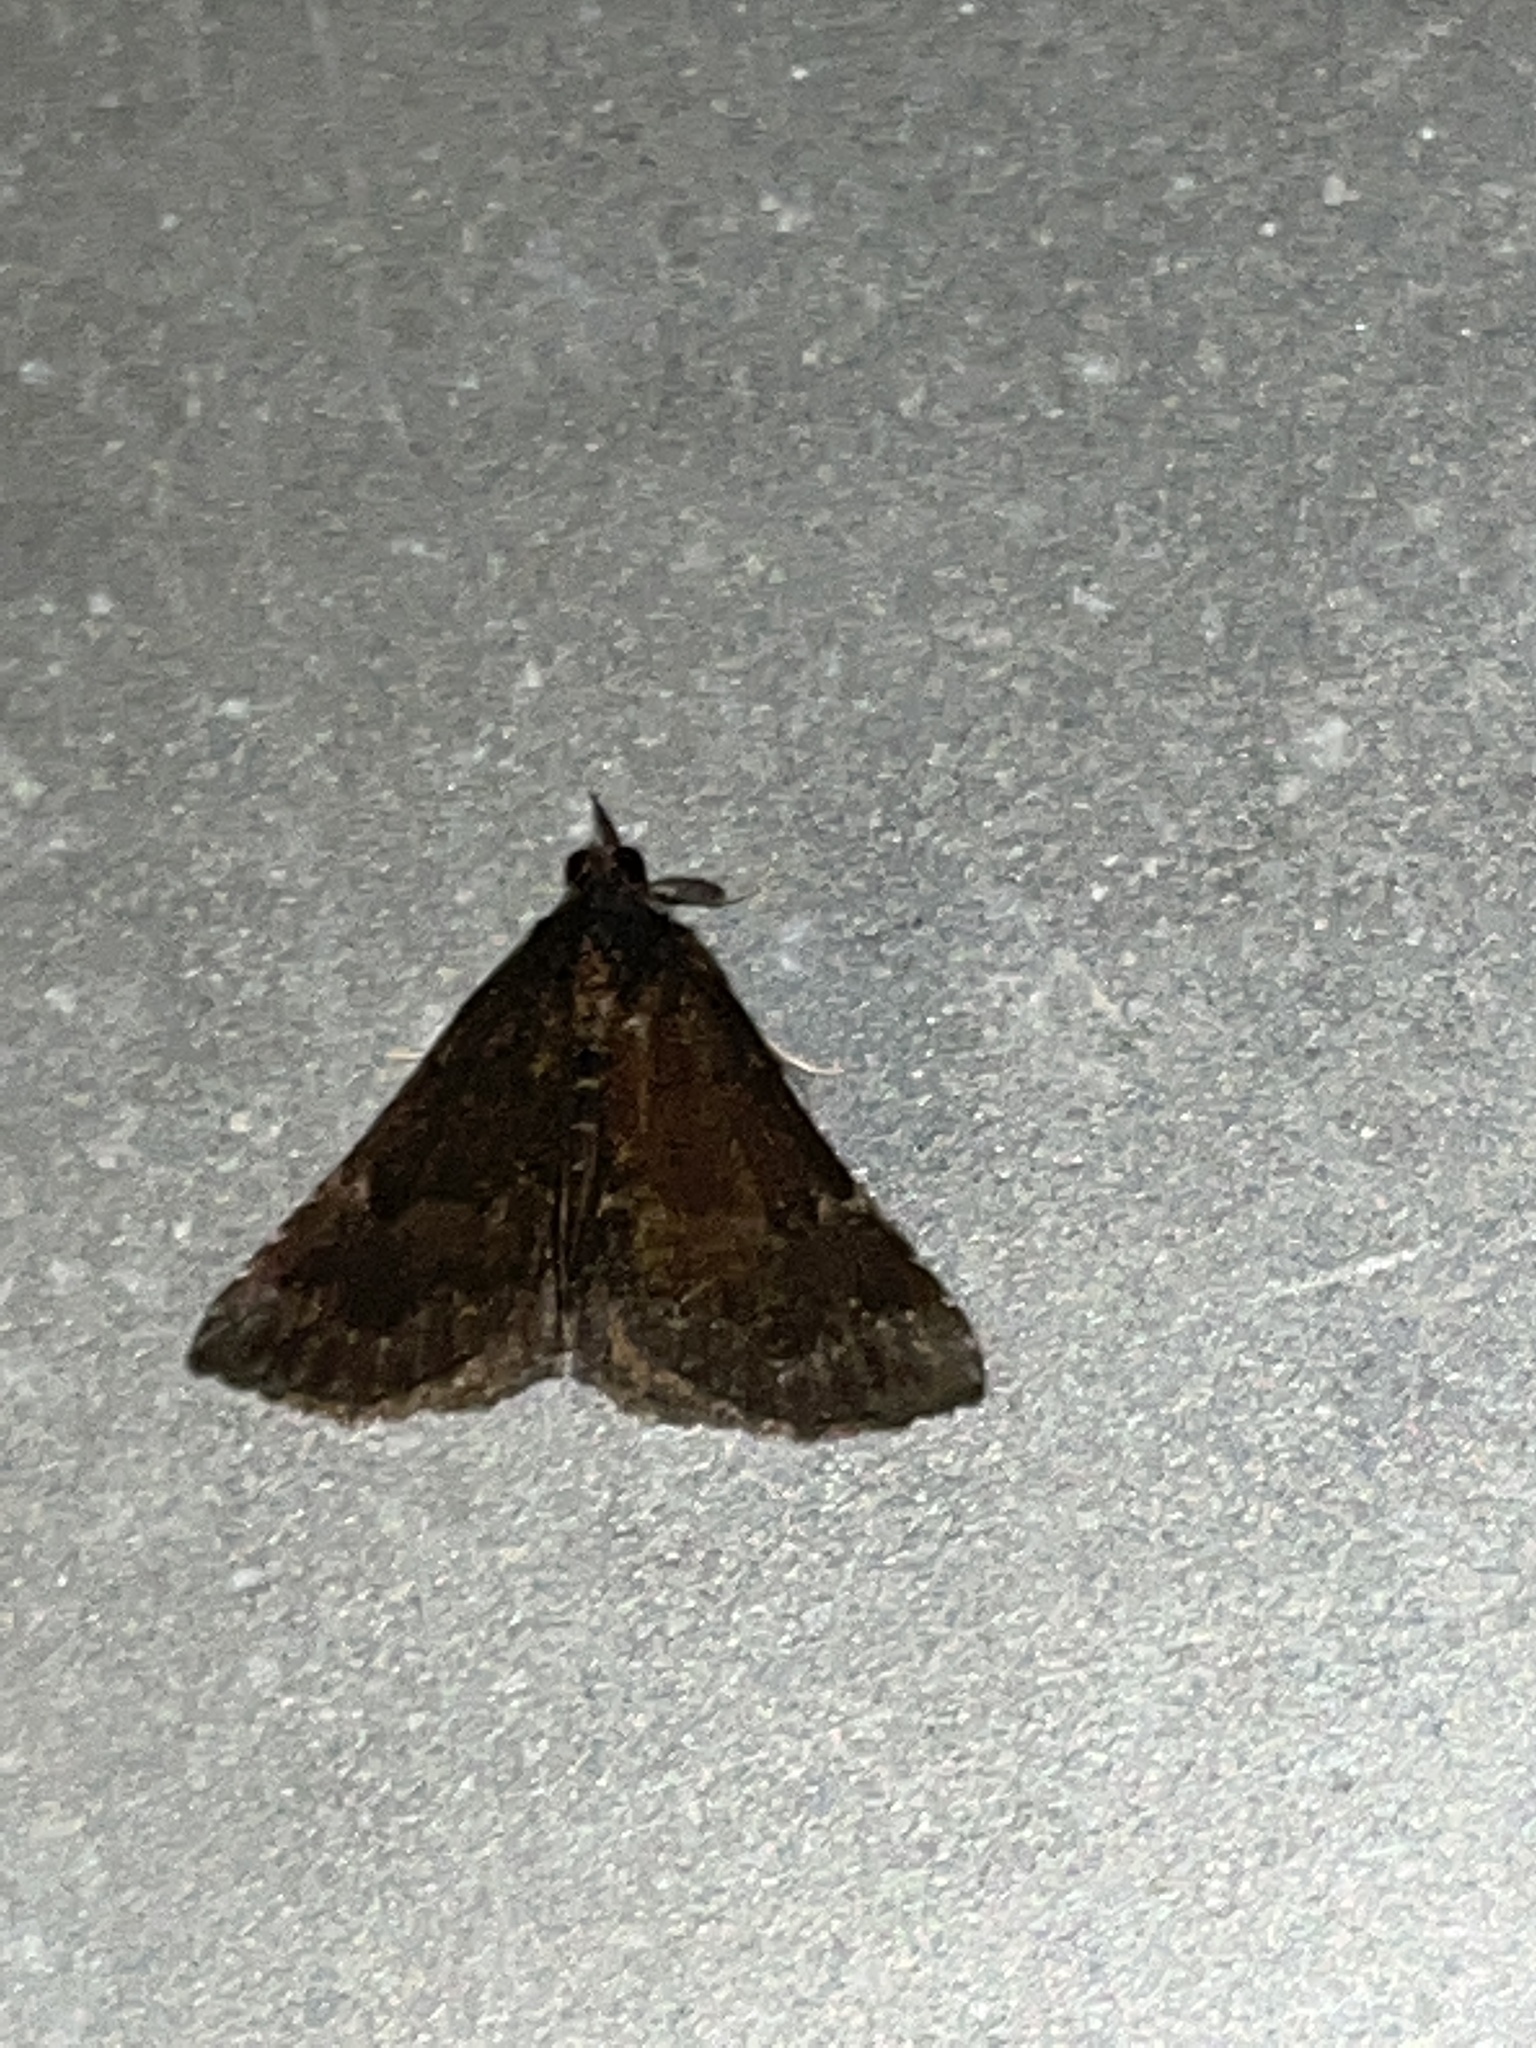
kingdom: Animalia
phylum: Arthropoda
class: Insecta
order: Lepidoptera
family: Erebidae
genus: Hypena
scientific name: Hypena sordidula
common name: Sordid snout
